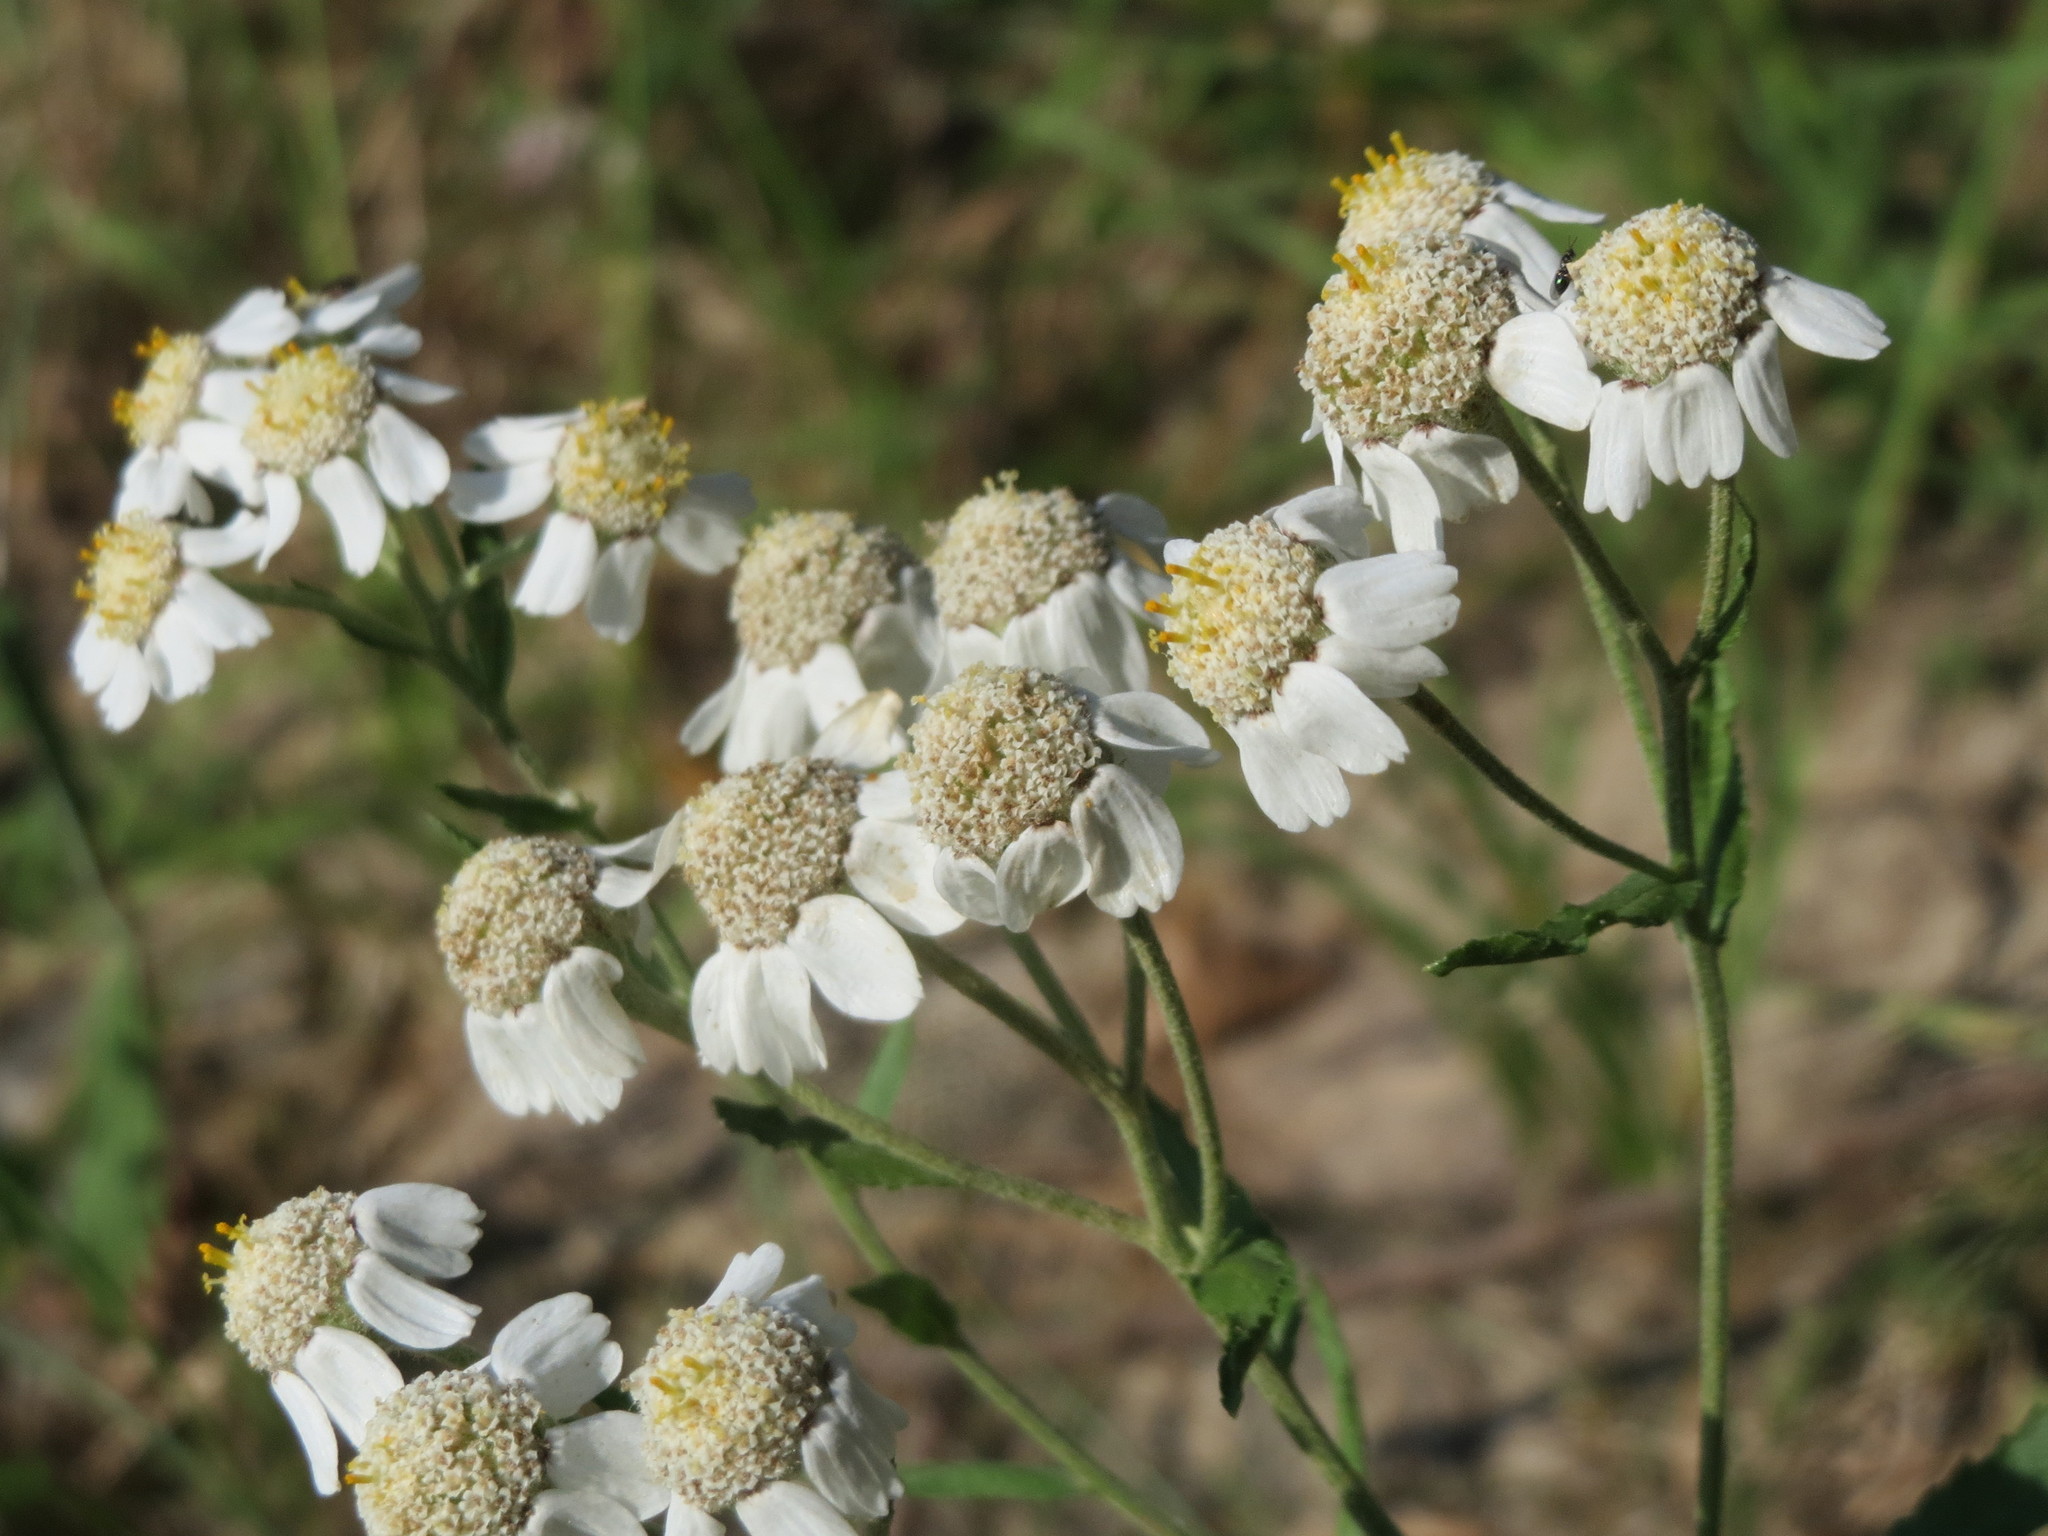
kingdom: Plantae
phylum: Tracheophyta
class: Magnoliopsida
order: Asterales
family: Asteraceae
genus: Achillea
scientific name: Achillea ptarmica
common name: Sneezeweed
